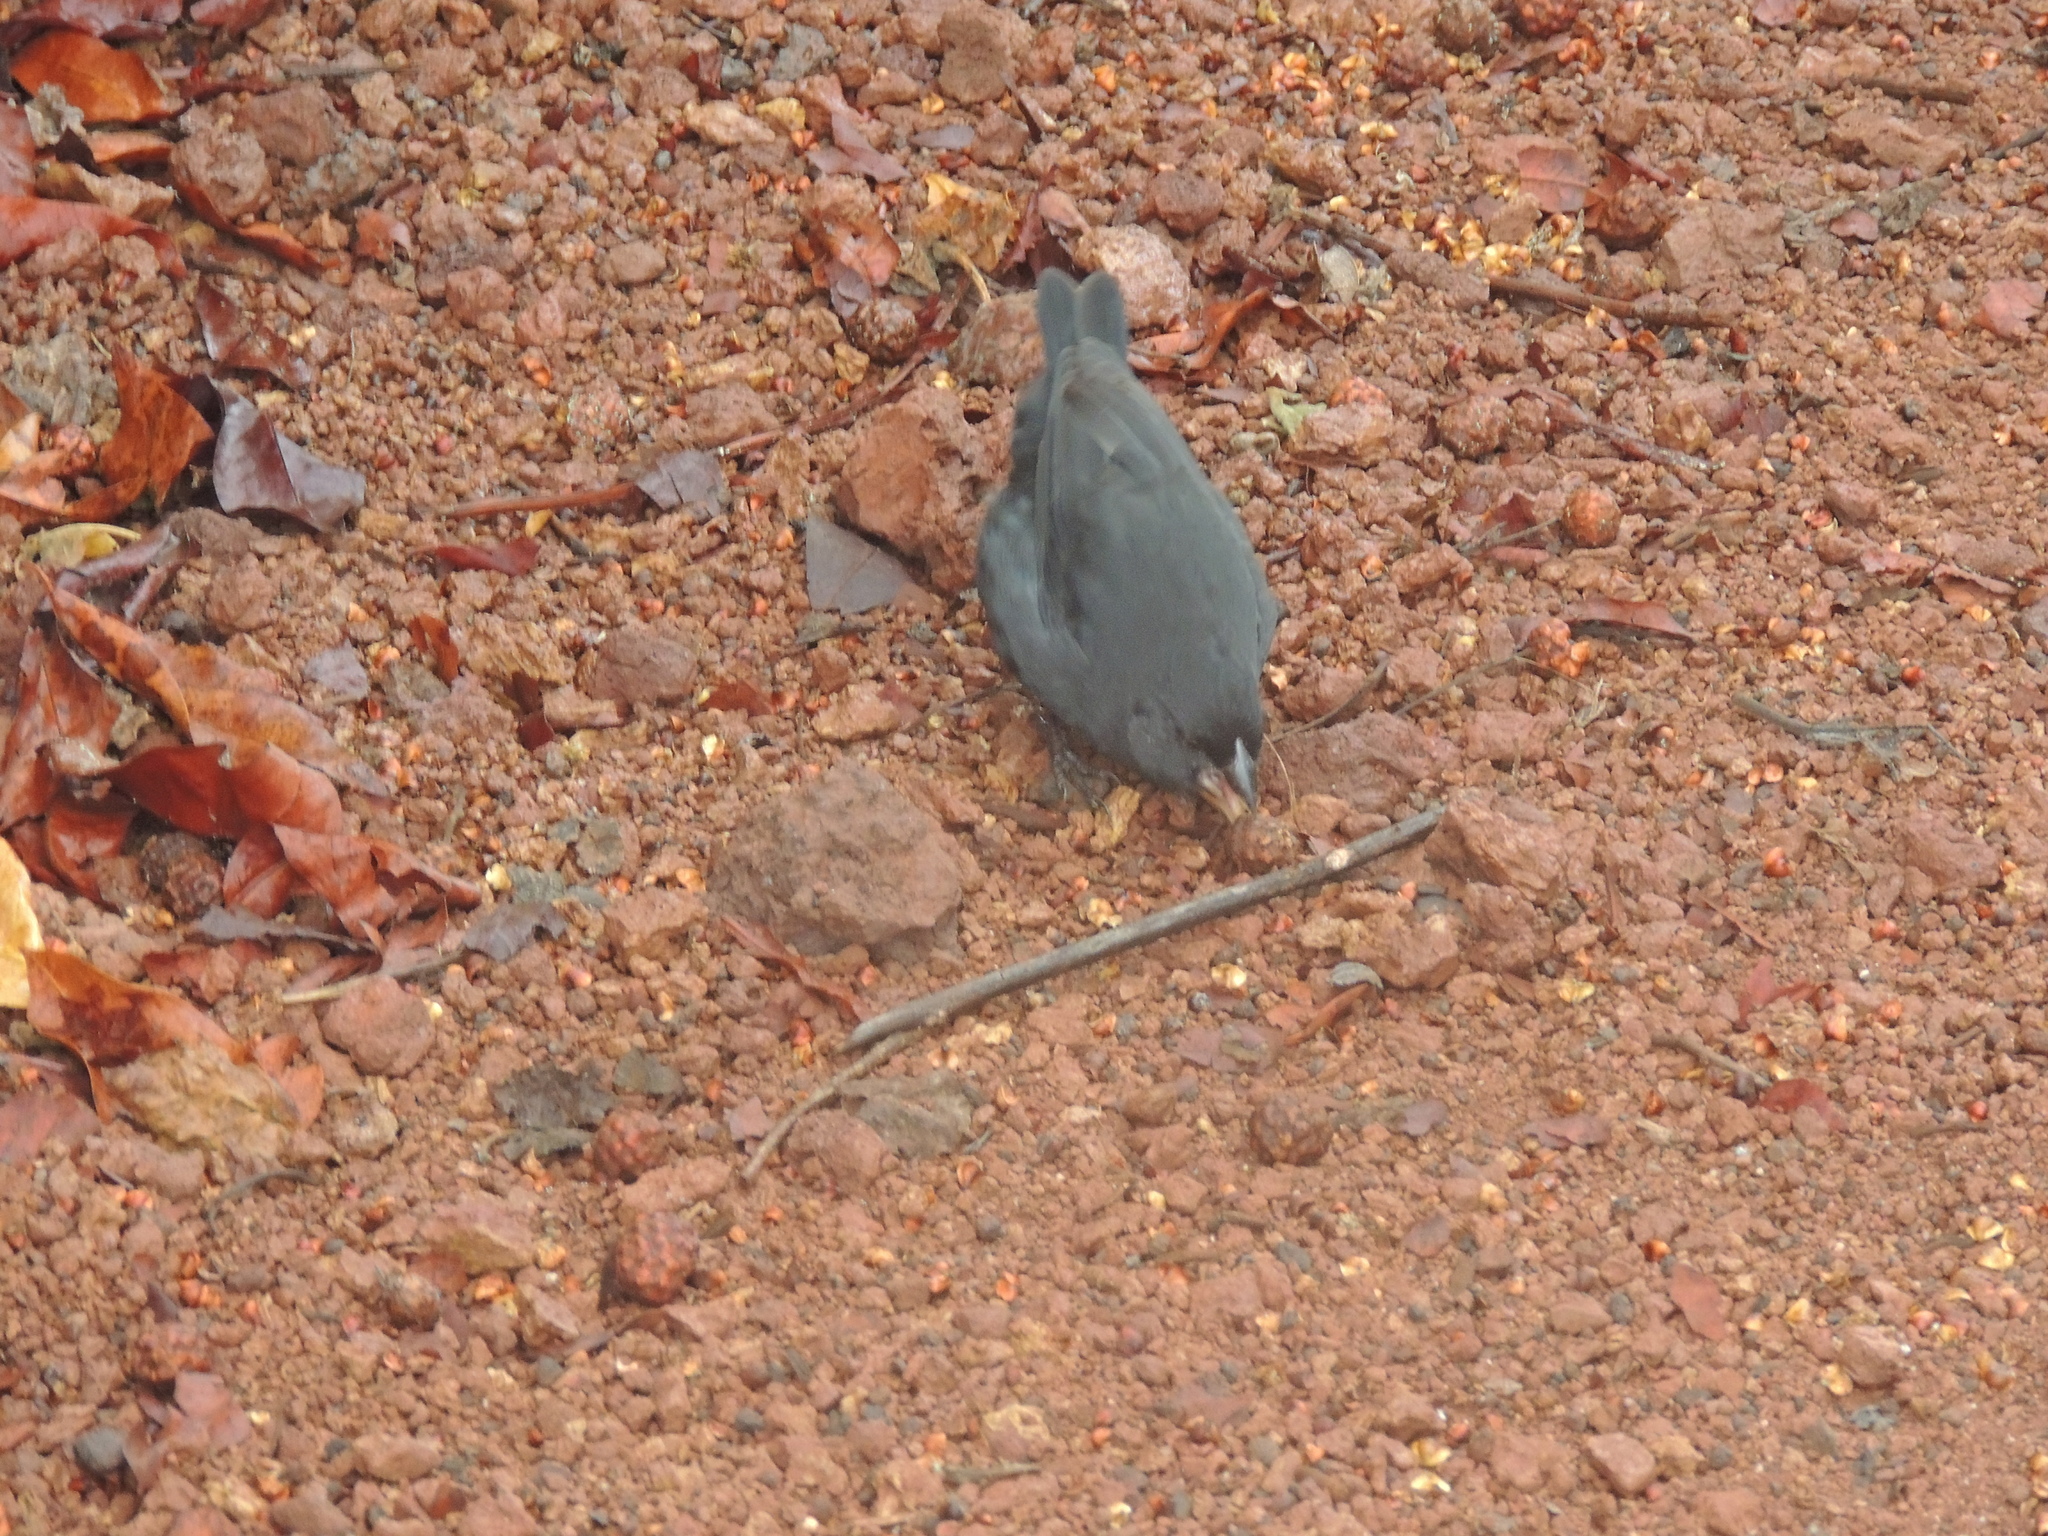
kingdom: Animalia
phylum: Chordata
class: Aves
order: Passeriformes
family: Thraupidae
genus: Geospiza
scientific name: Geospiza fuliginosa
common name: Small ground finch
